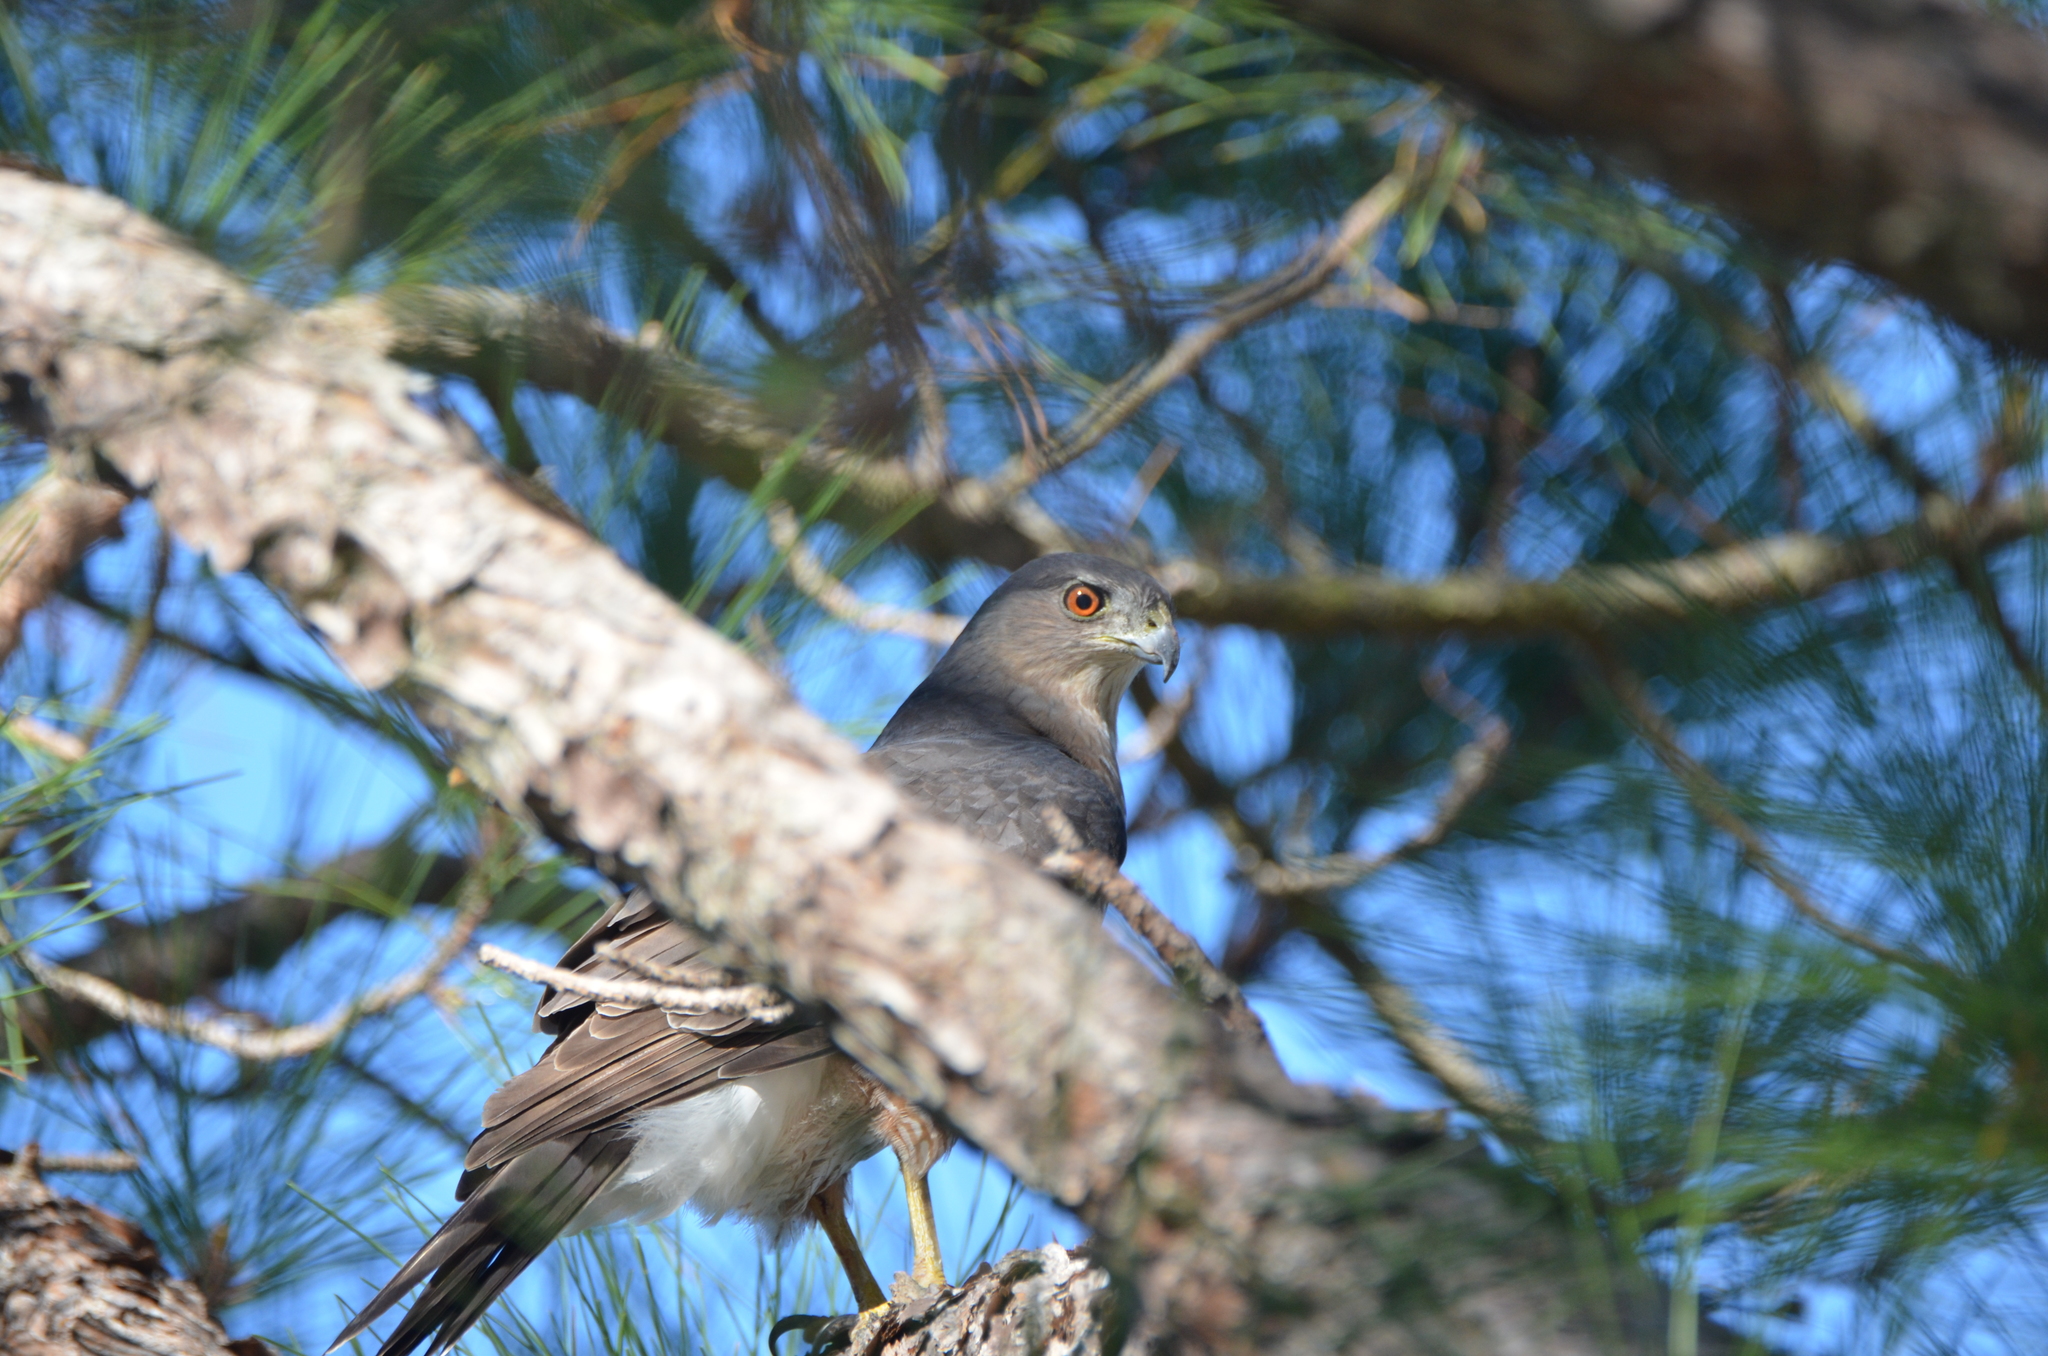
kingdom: Animalia
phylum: Chordata
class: Aves
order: Accipitriformes
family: Accipitridae
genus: Accipiter
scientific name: Accipiter cooperii
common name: Cooper's hawk
